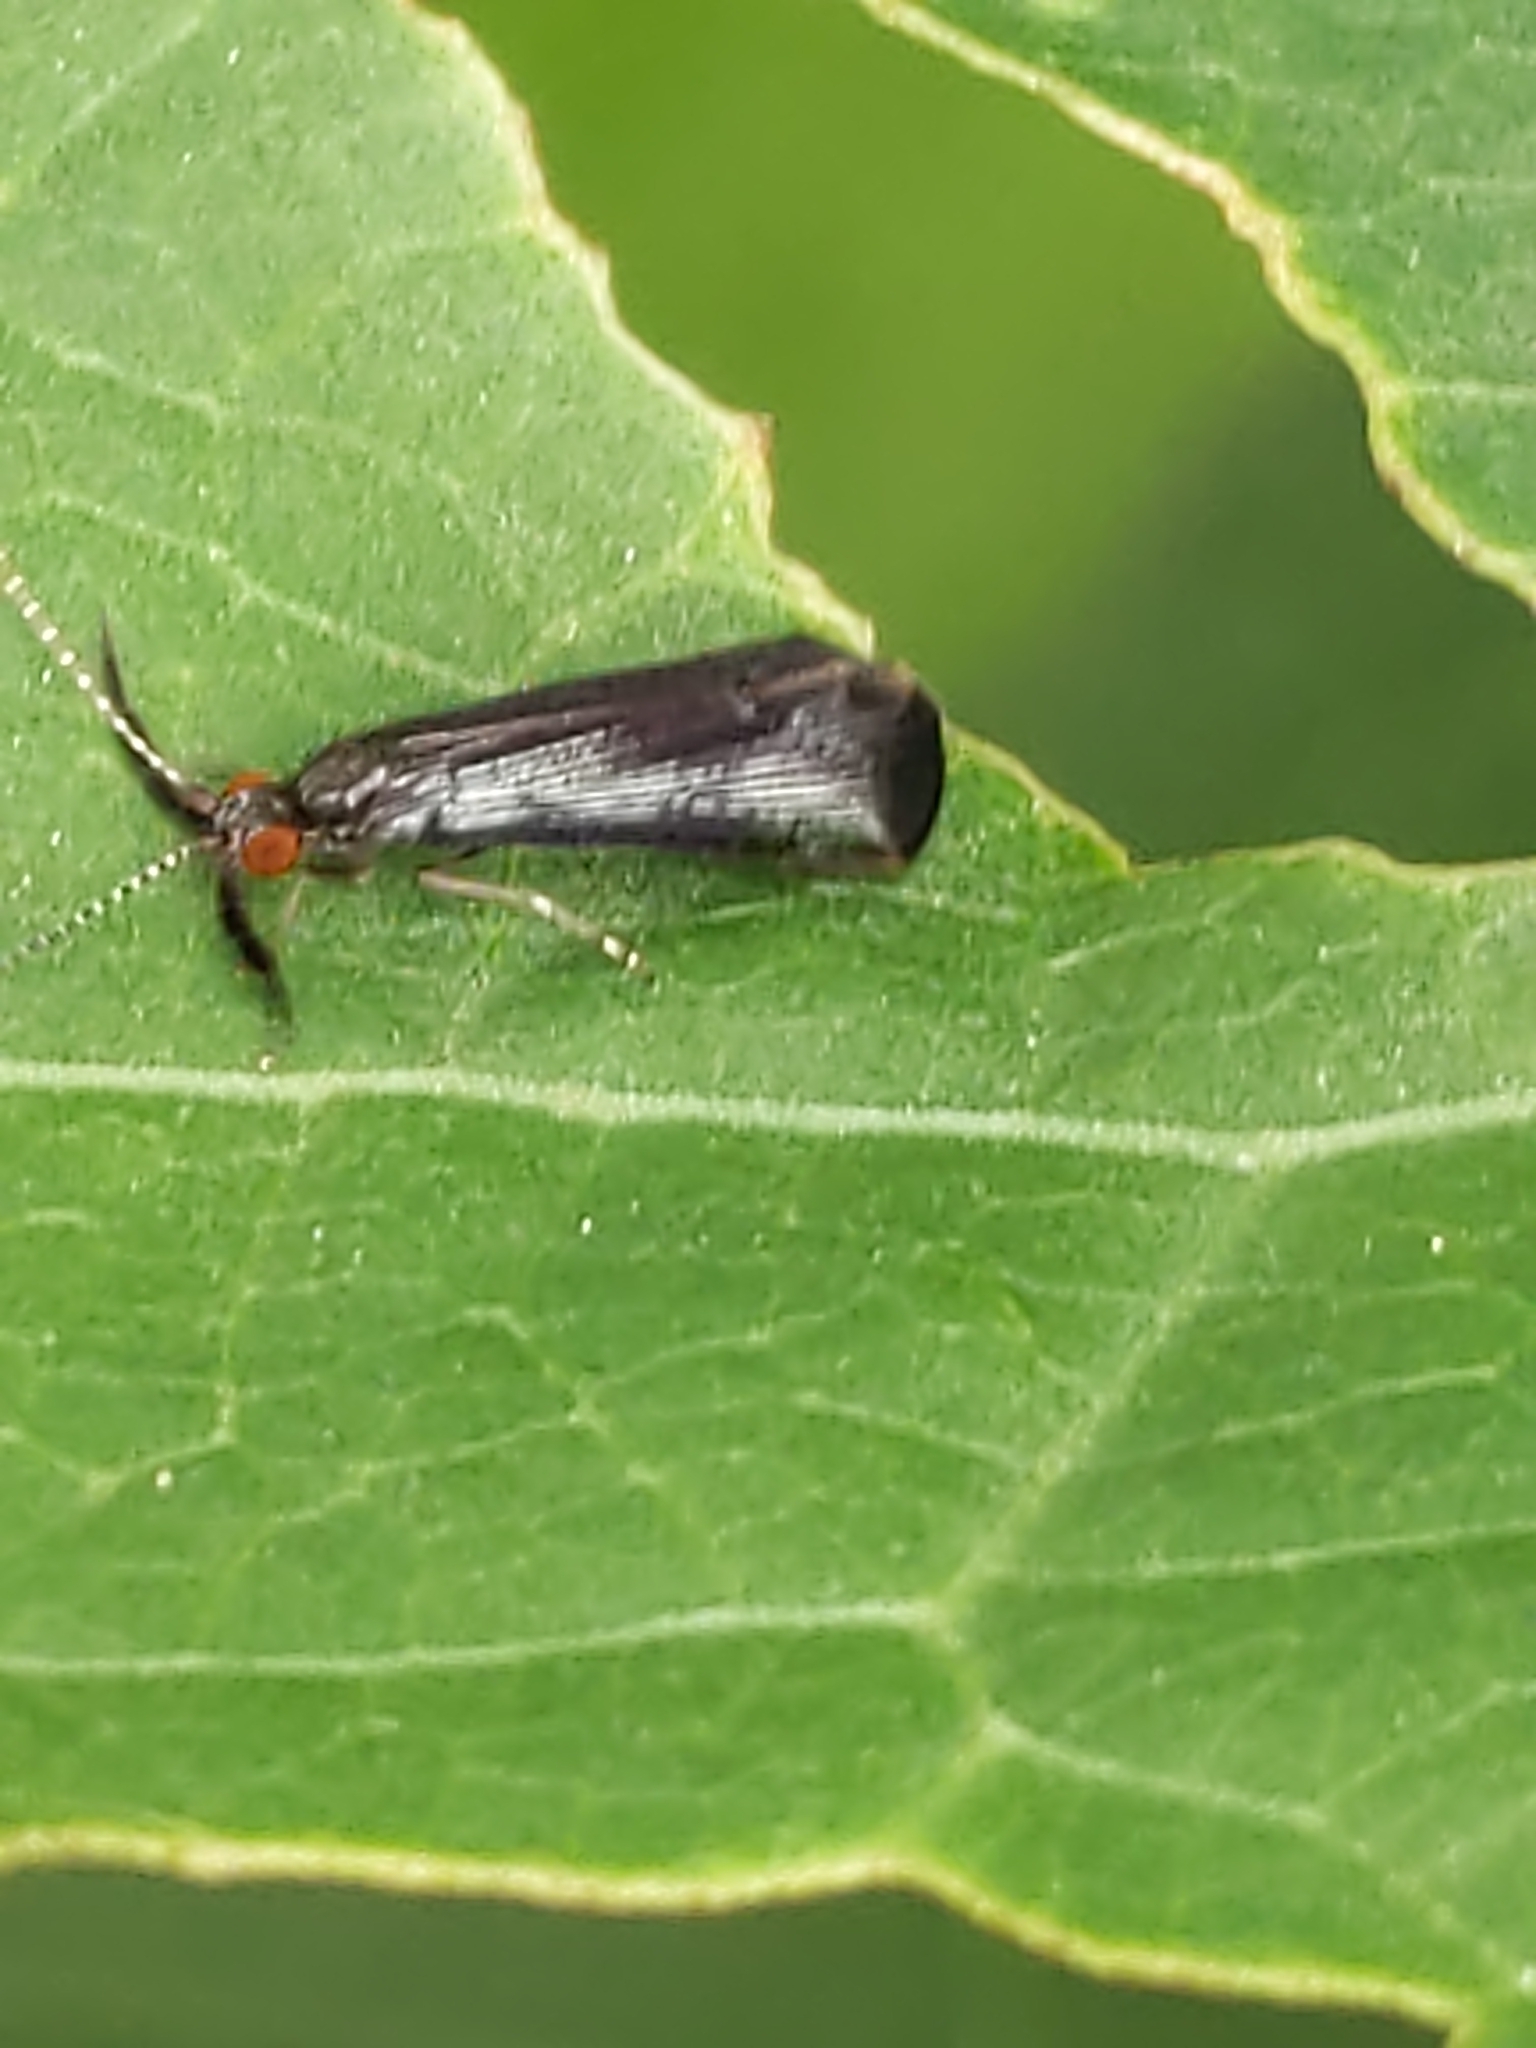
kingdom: Animalia
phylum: Arthropoda
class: Insecta
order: Trichoptera
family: Leptoceridae
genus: Mystacides
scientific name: Mystacides sepulchralis
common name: Black dancer caddisfly
